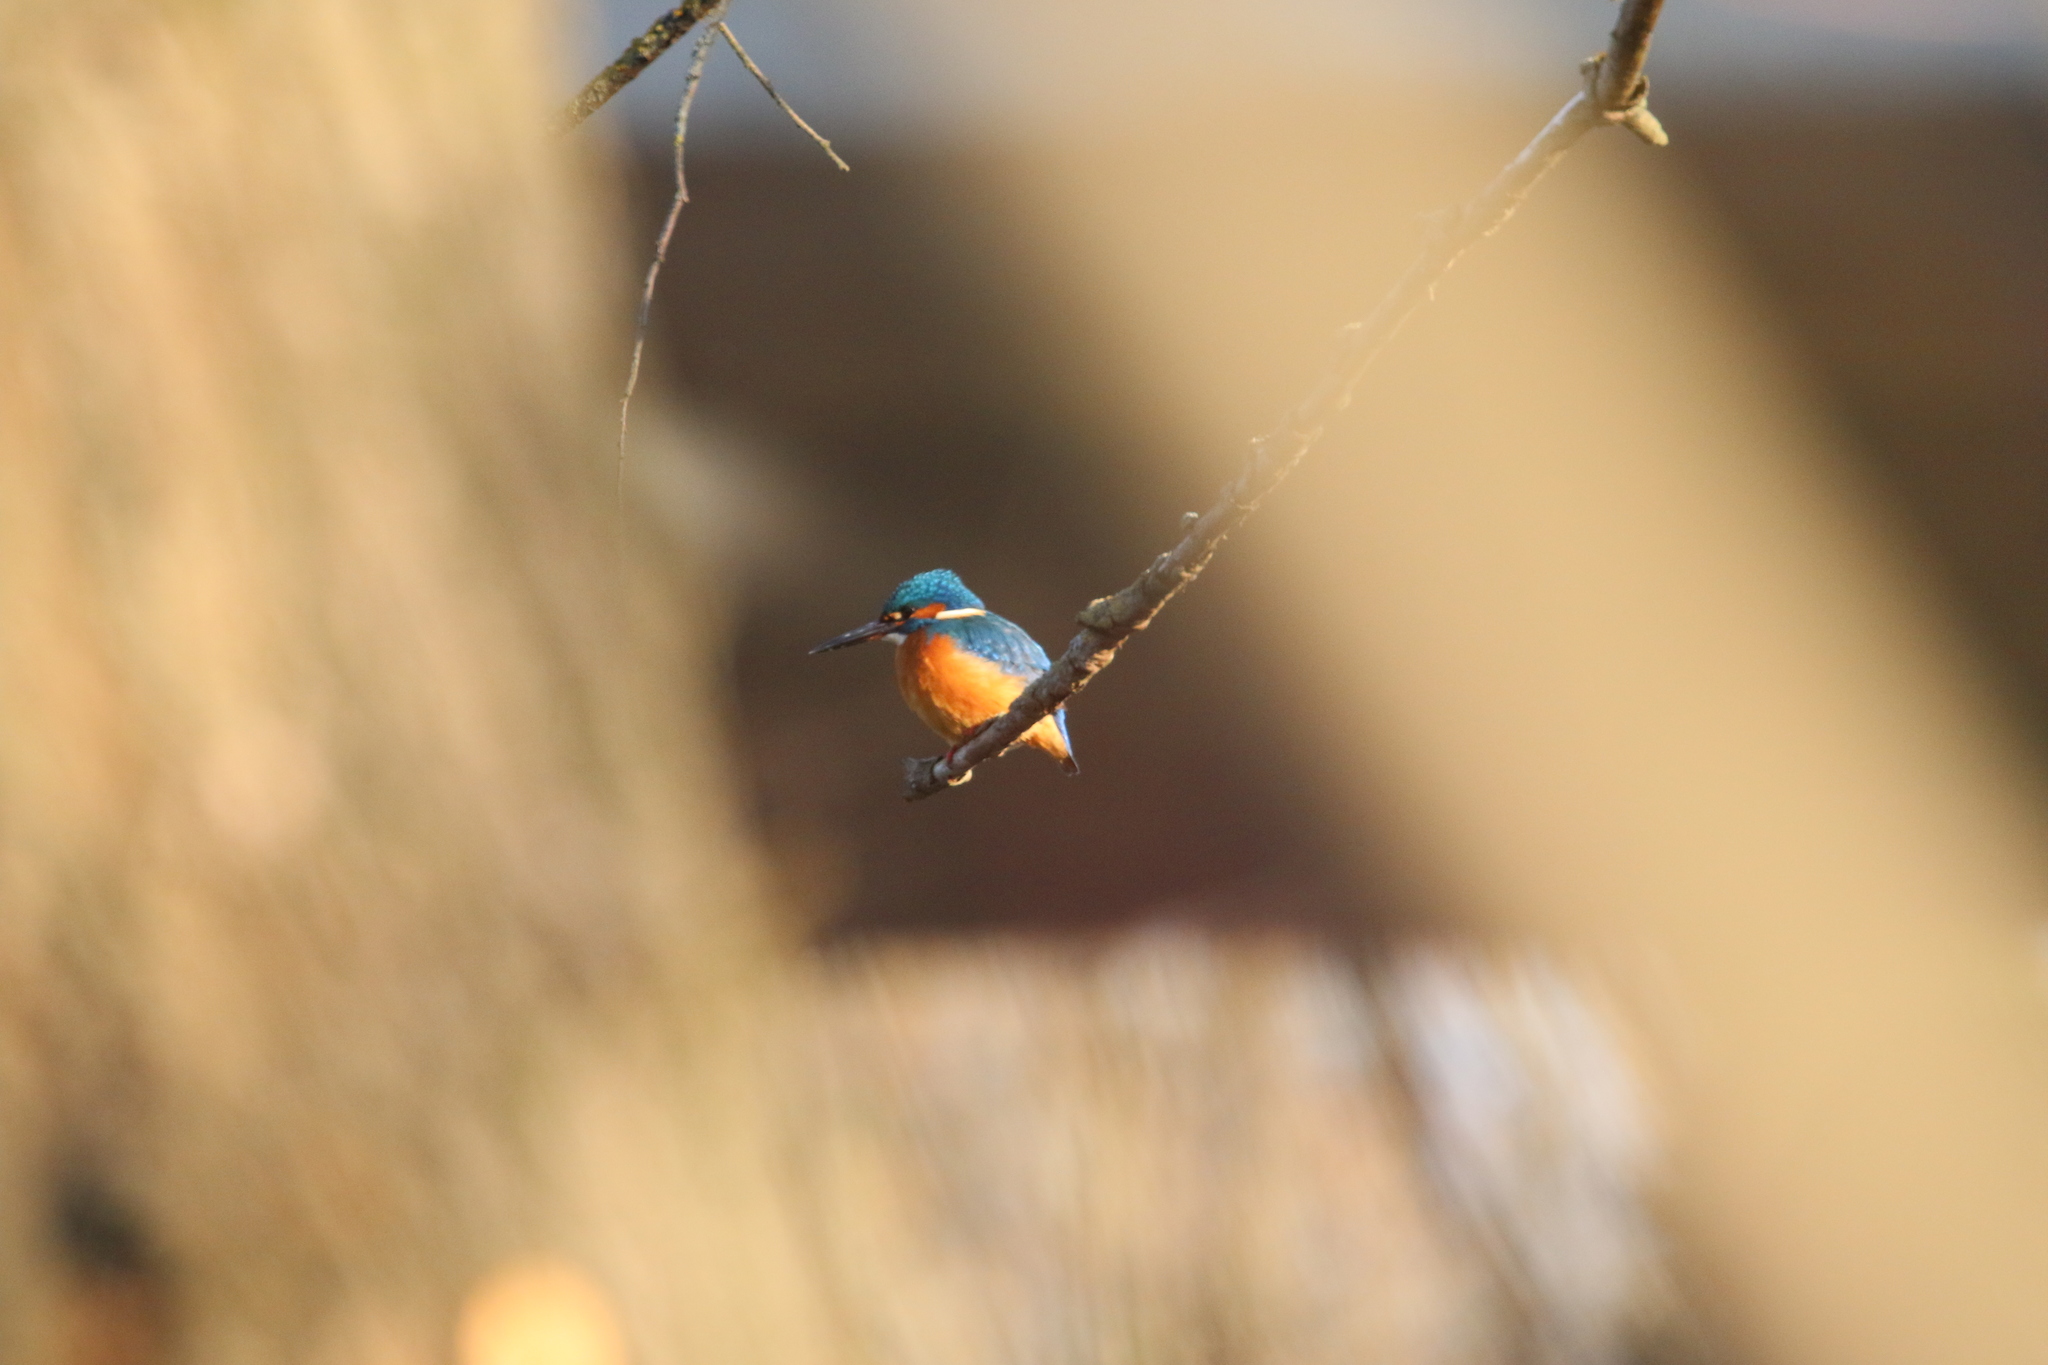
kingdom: Animalia
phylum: Chordata
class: Aves
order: Coraciiformes
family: Alcedinidae
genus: Alcedo
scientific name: Alcedo atthis
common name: Common kingfisher
